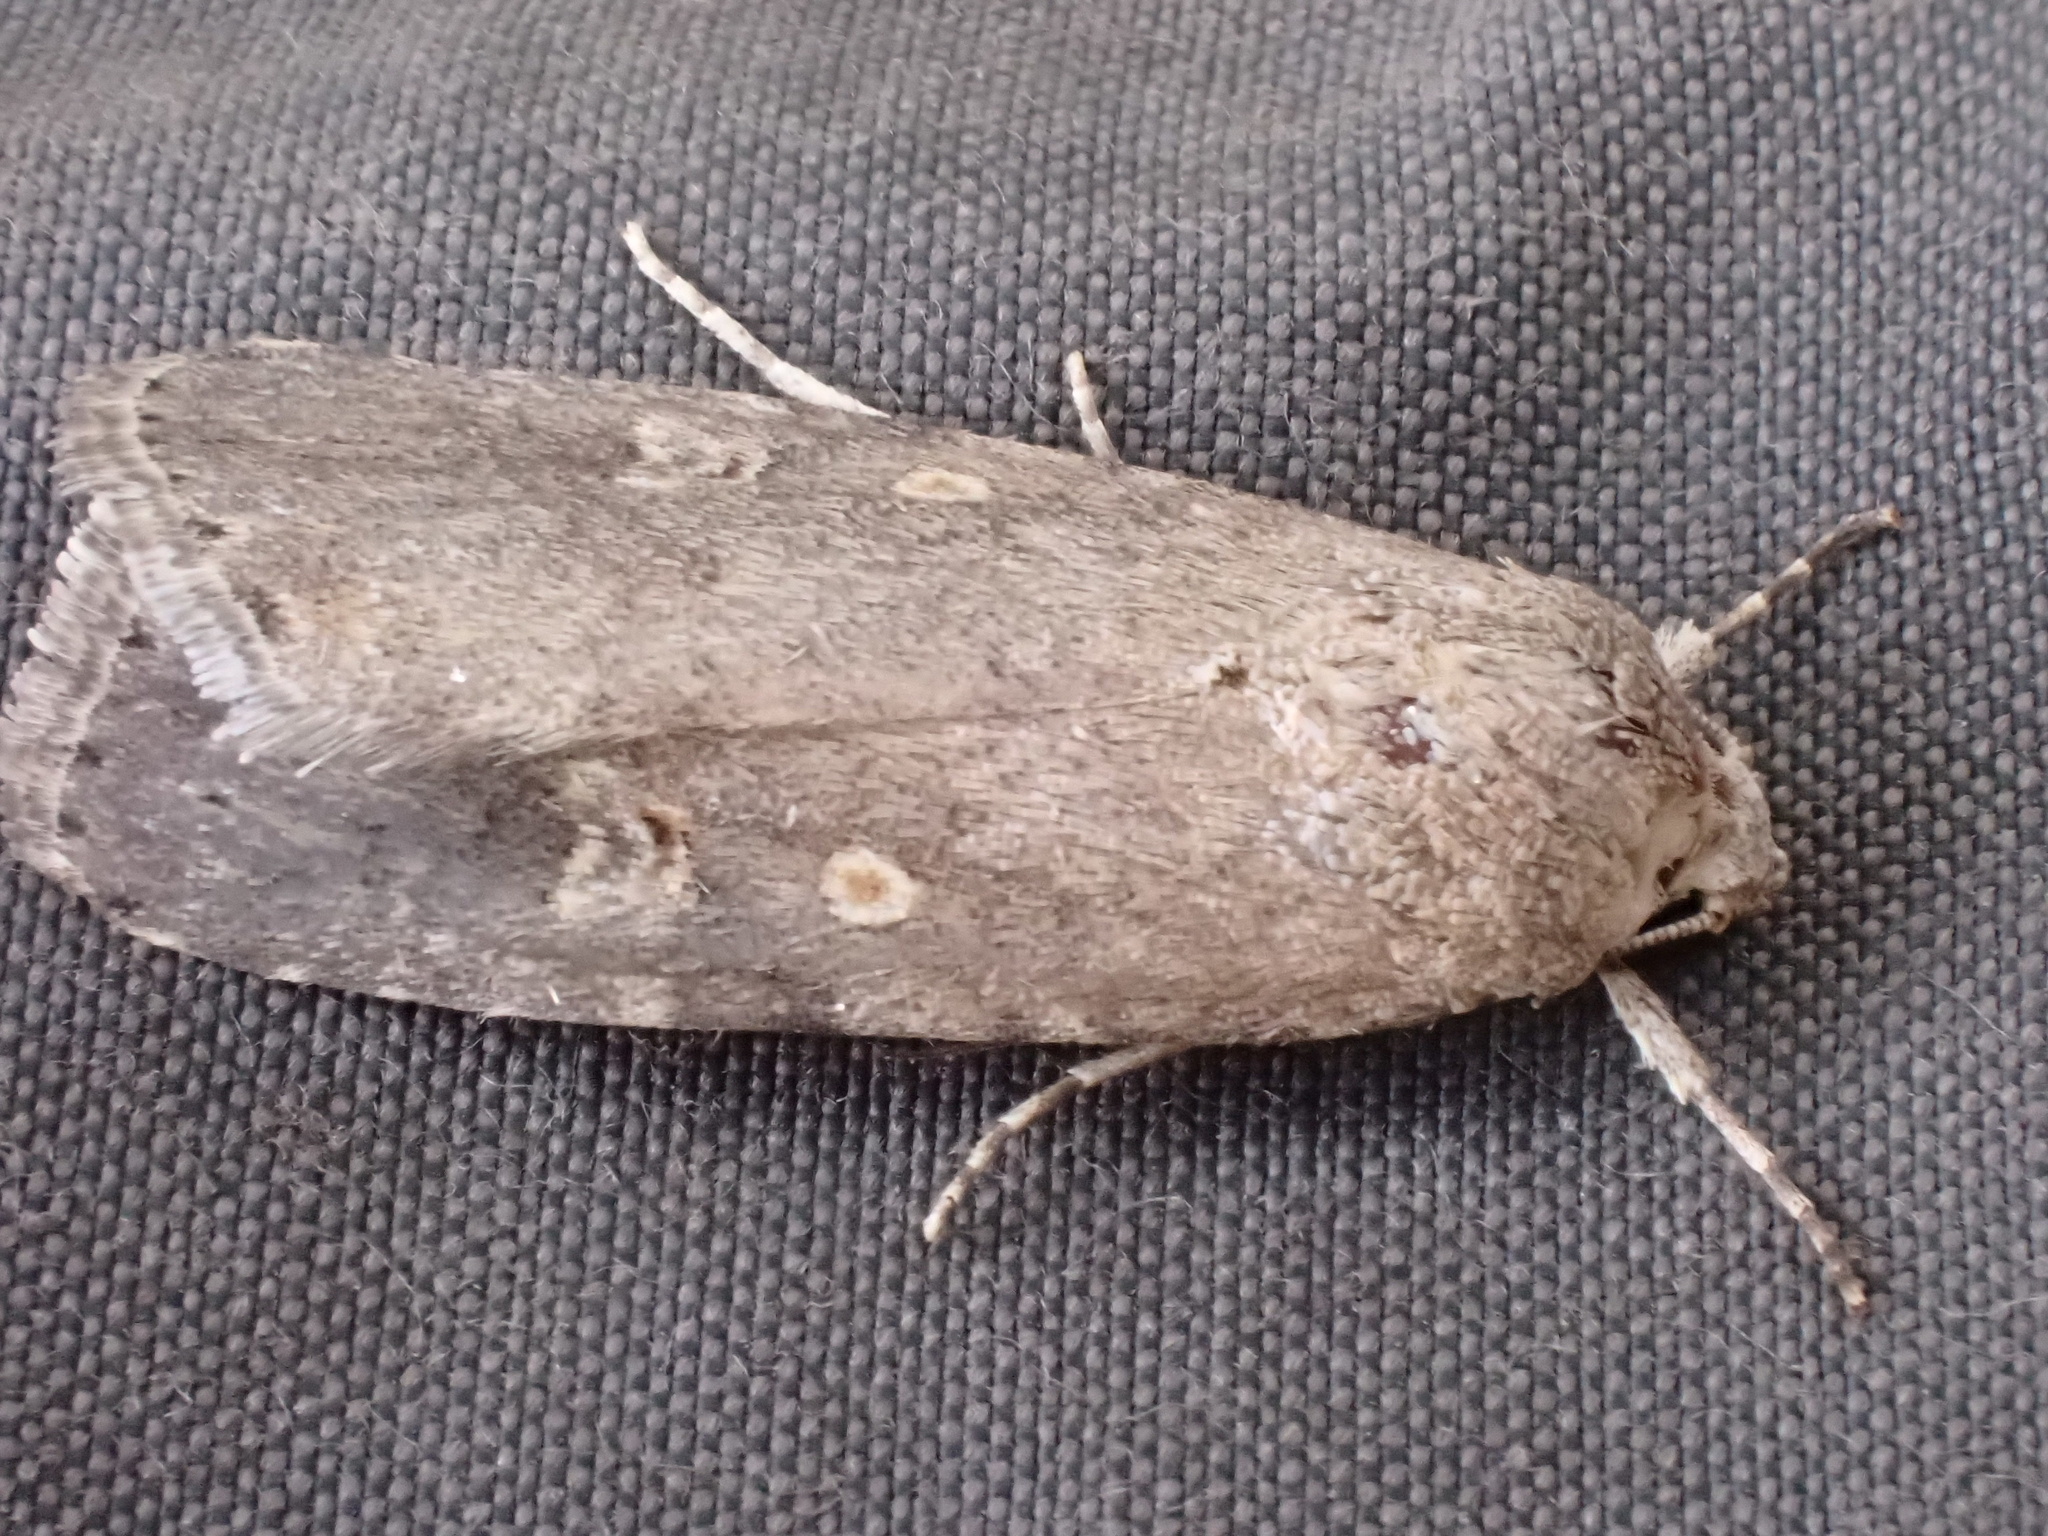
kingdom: Animalia
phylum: Arthropoda
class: Insecta
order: Lepidoptera
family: Noctuidae
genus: Spodoptera
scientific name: Spodoptera exigua
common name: Beet armyworm
